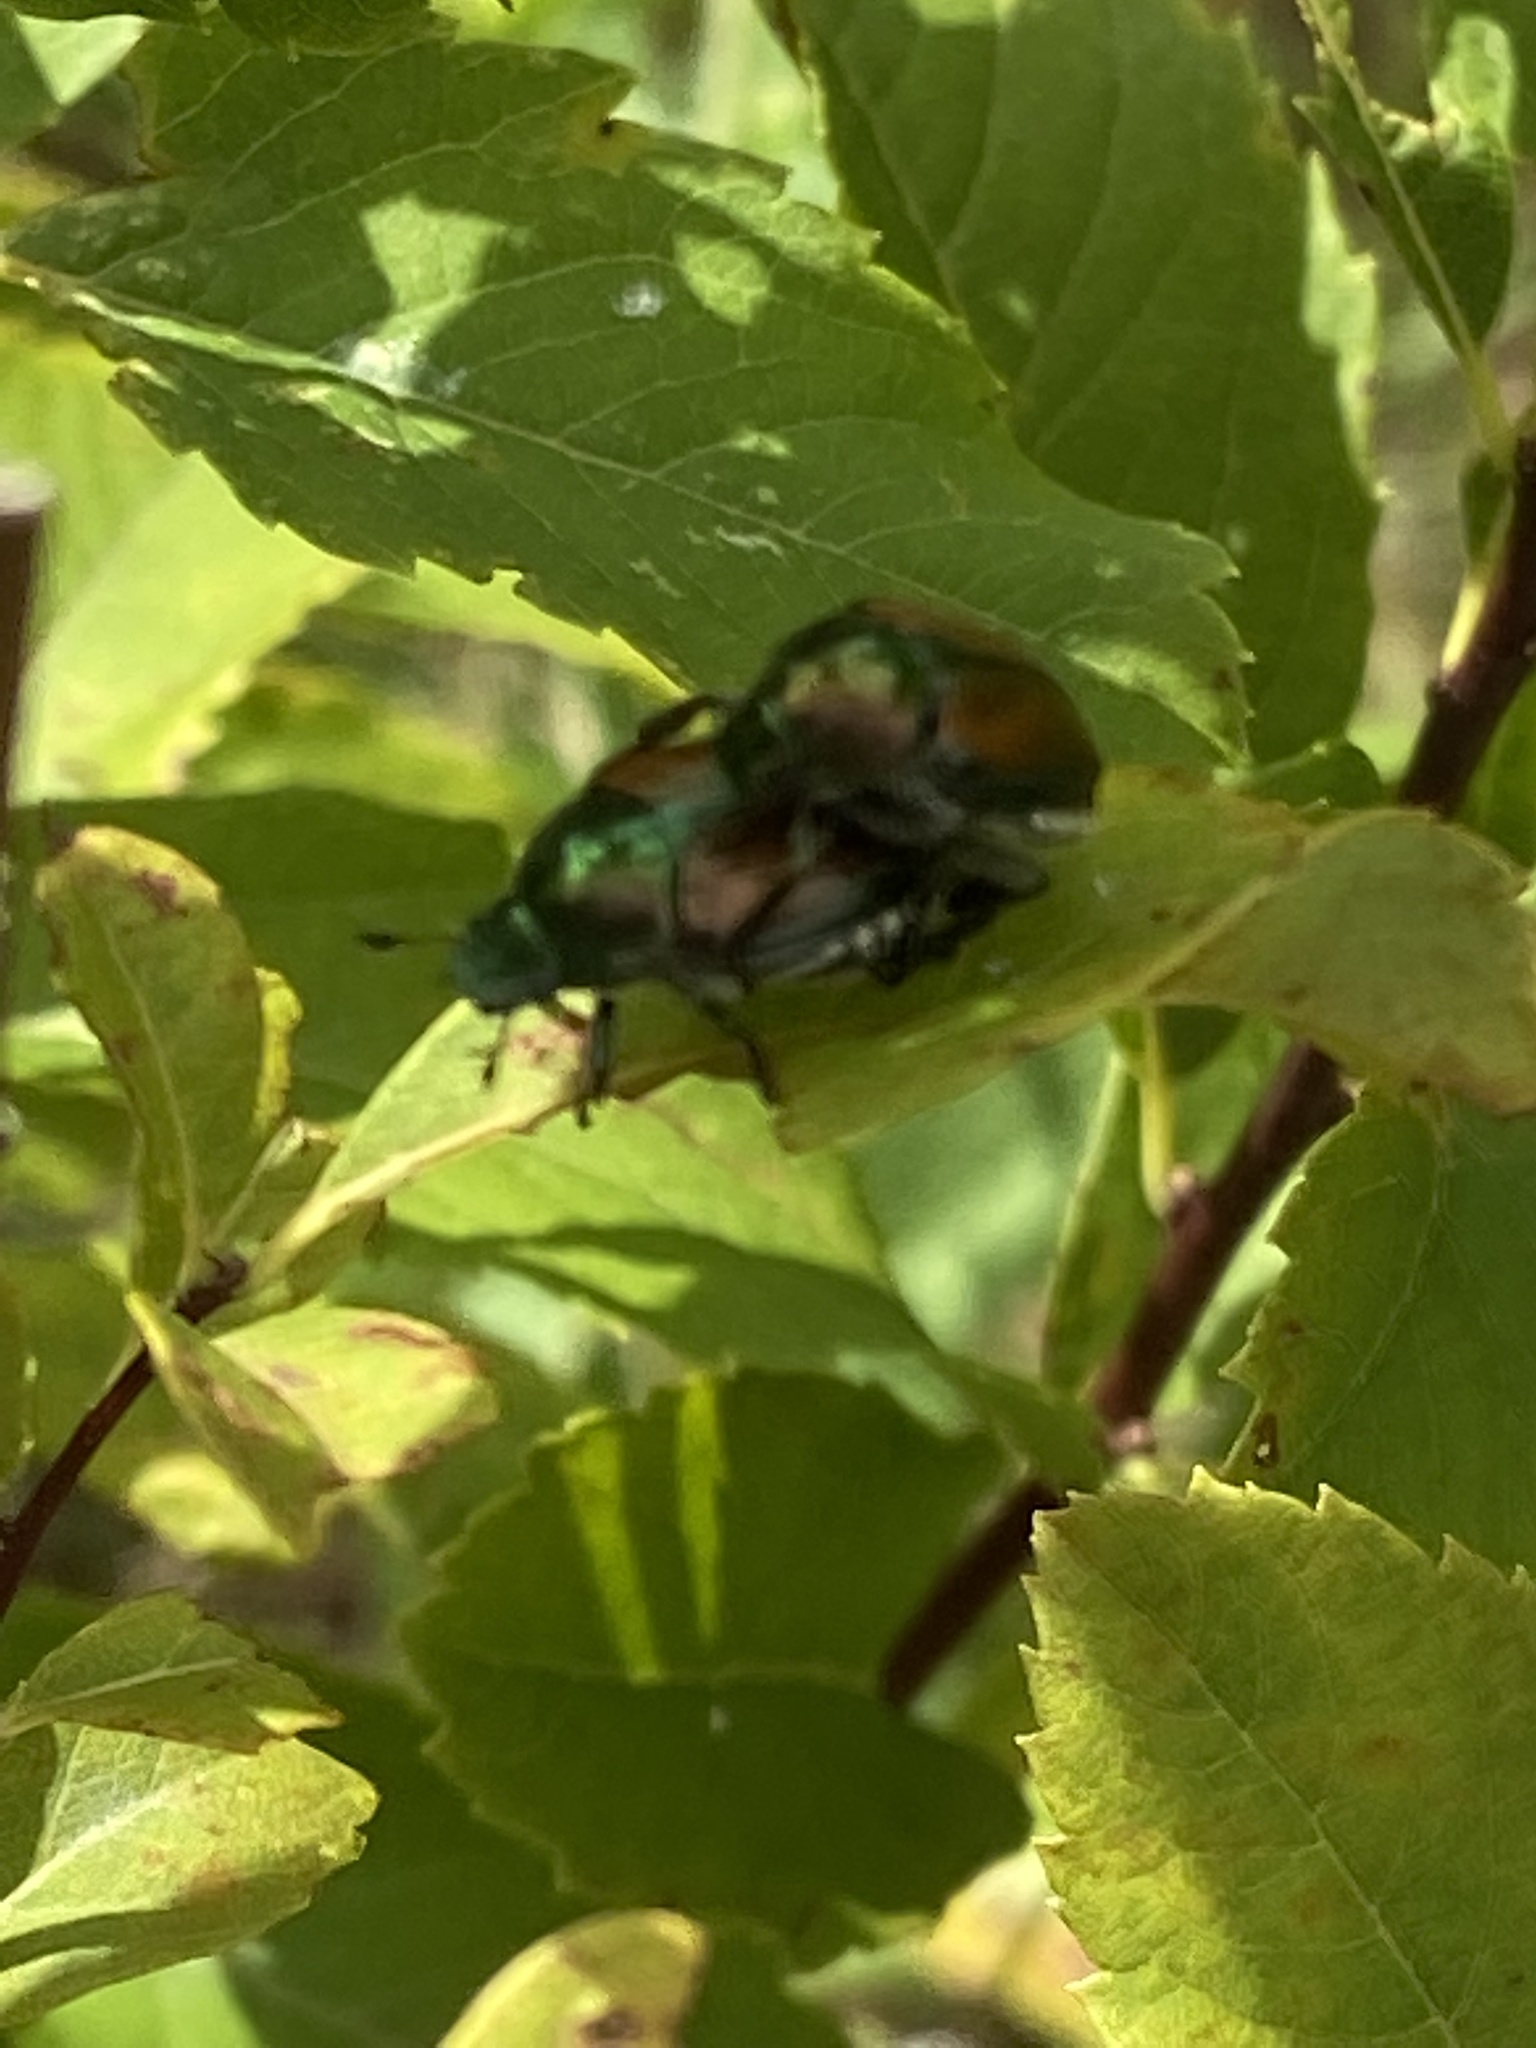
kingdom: Animalia
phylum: Arthropoda
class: Insecta
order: Coleoptera
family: Scarabaeidae
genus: Popillia
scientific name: Popillia japonica
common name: Japanese beetle
